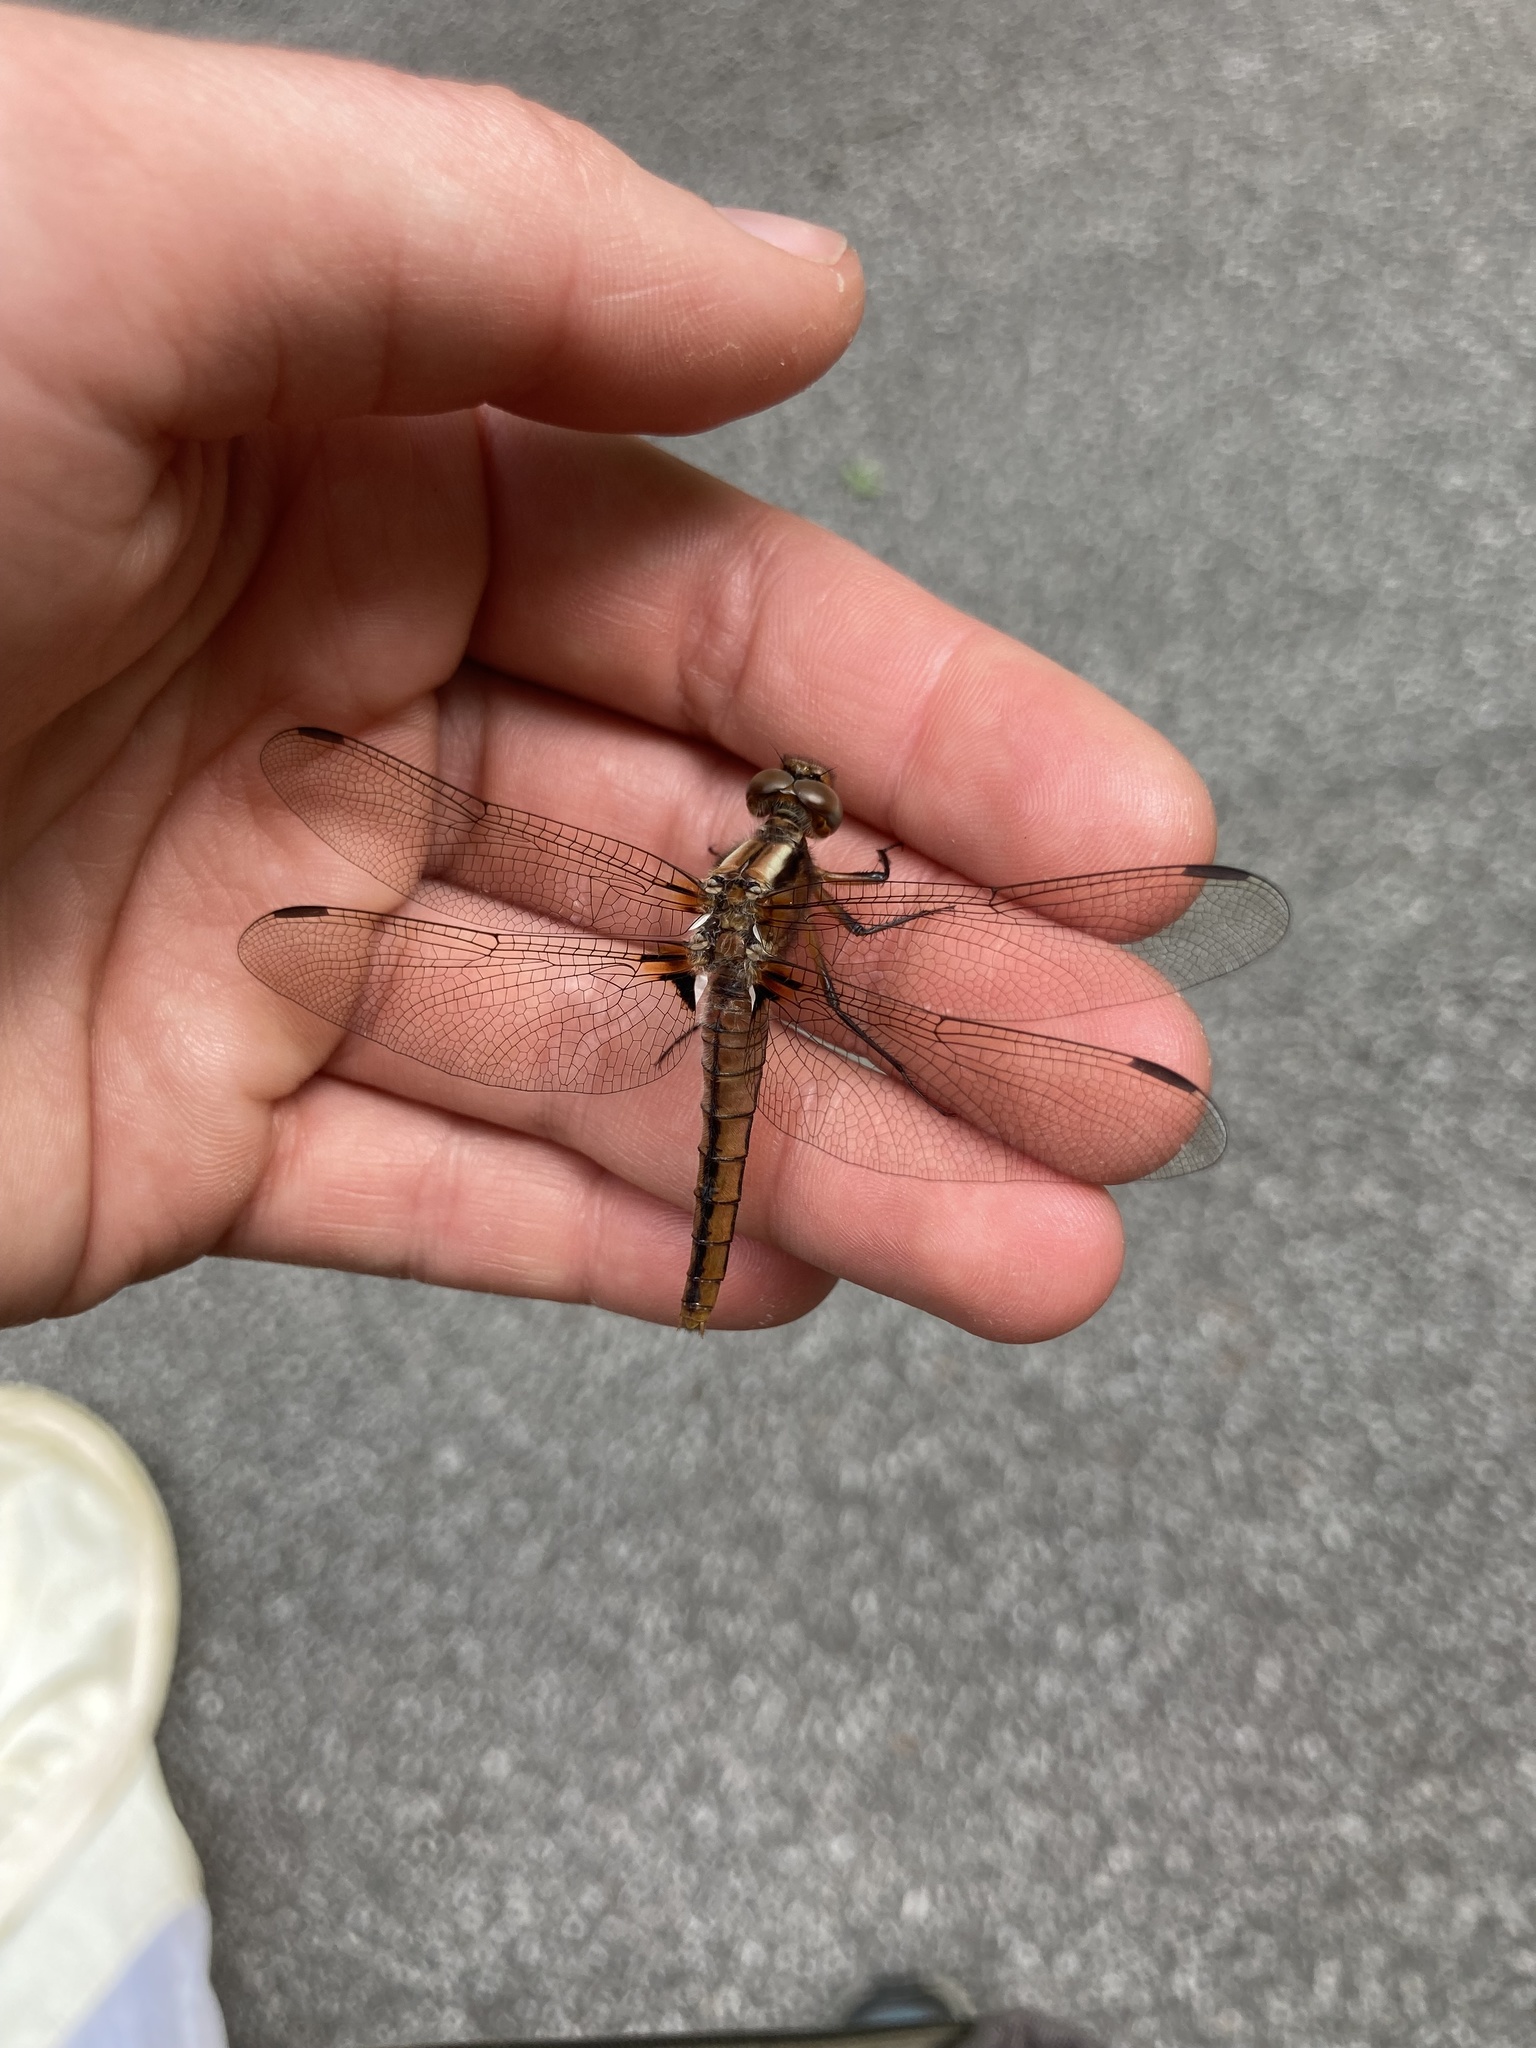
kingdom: Animalia
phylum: Arthropoda
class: Insecta
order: Odonata
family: Libellulidae
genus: Ladona
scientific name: Ladona julia
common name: Chalk-fronted corporal
